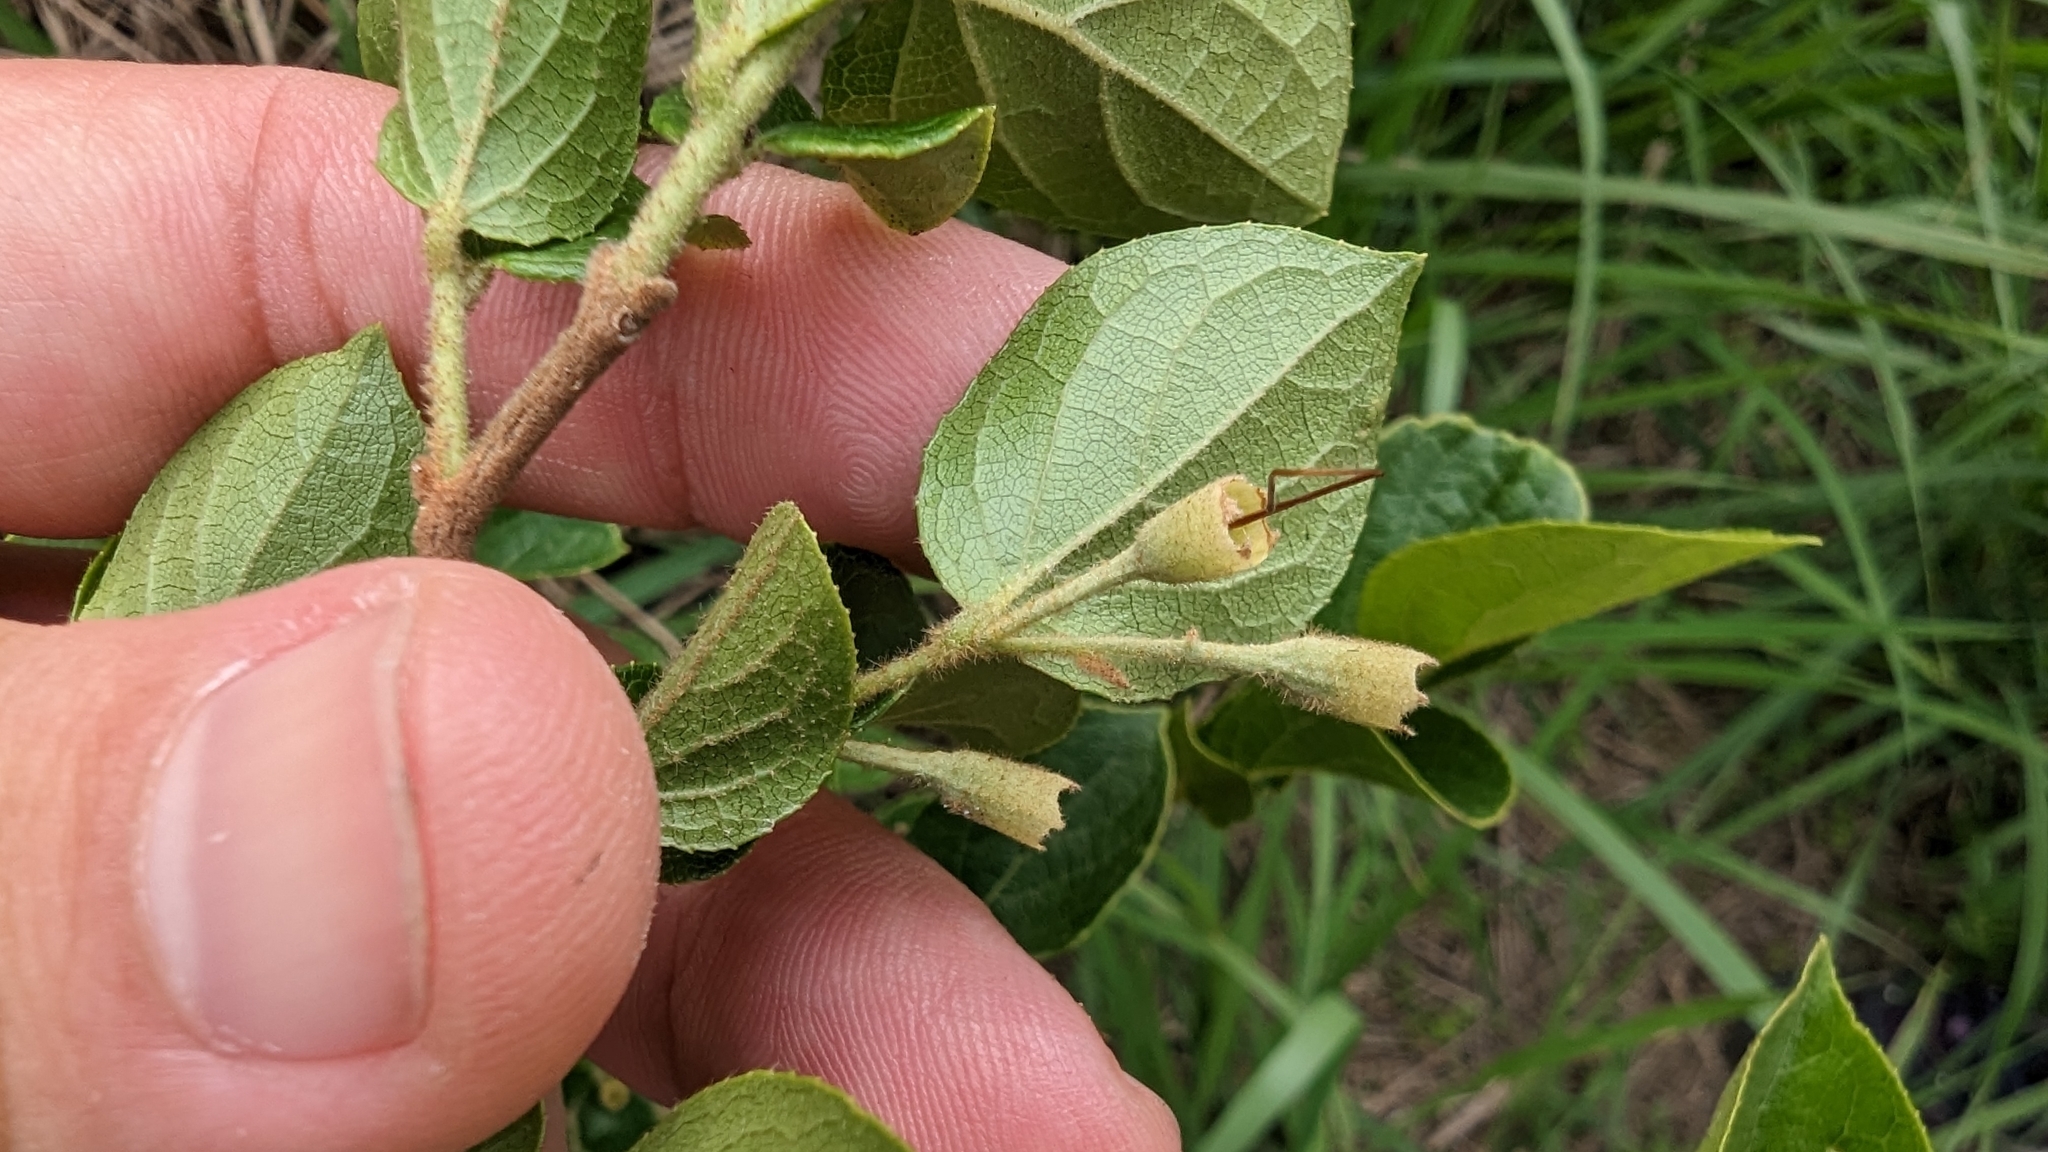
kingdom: Plantae
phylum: Tracheophyta
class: Magnoliopsida
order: Ericales
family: Styracaceae
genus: Styrax
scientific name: Styrax faberi
